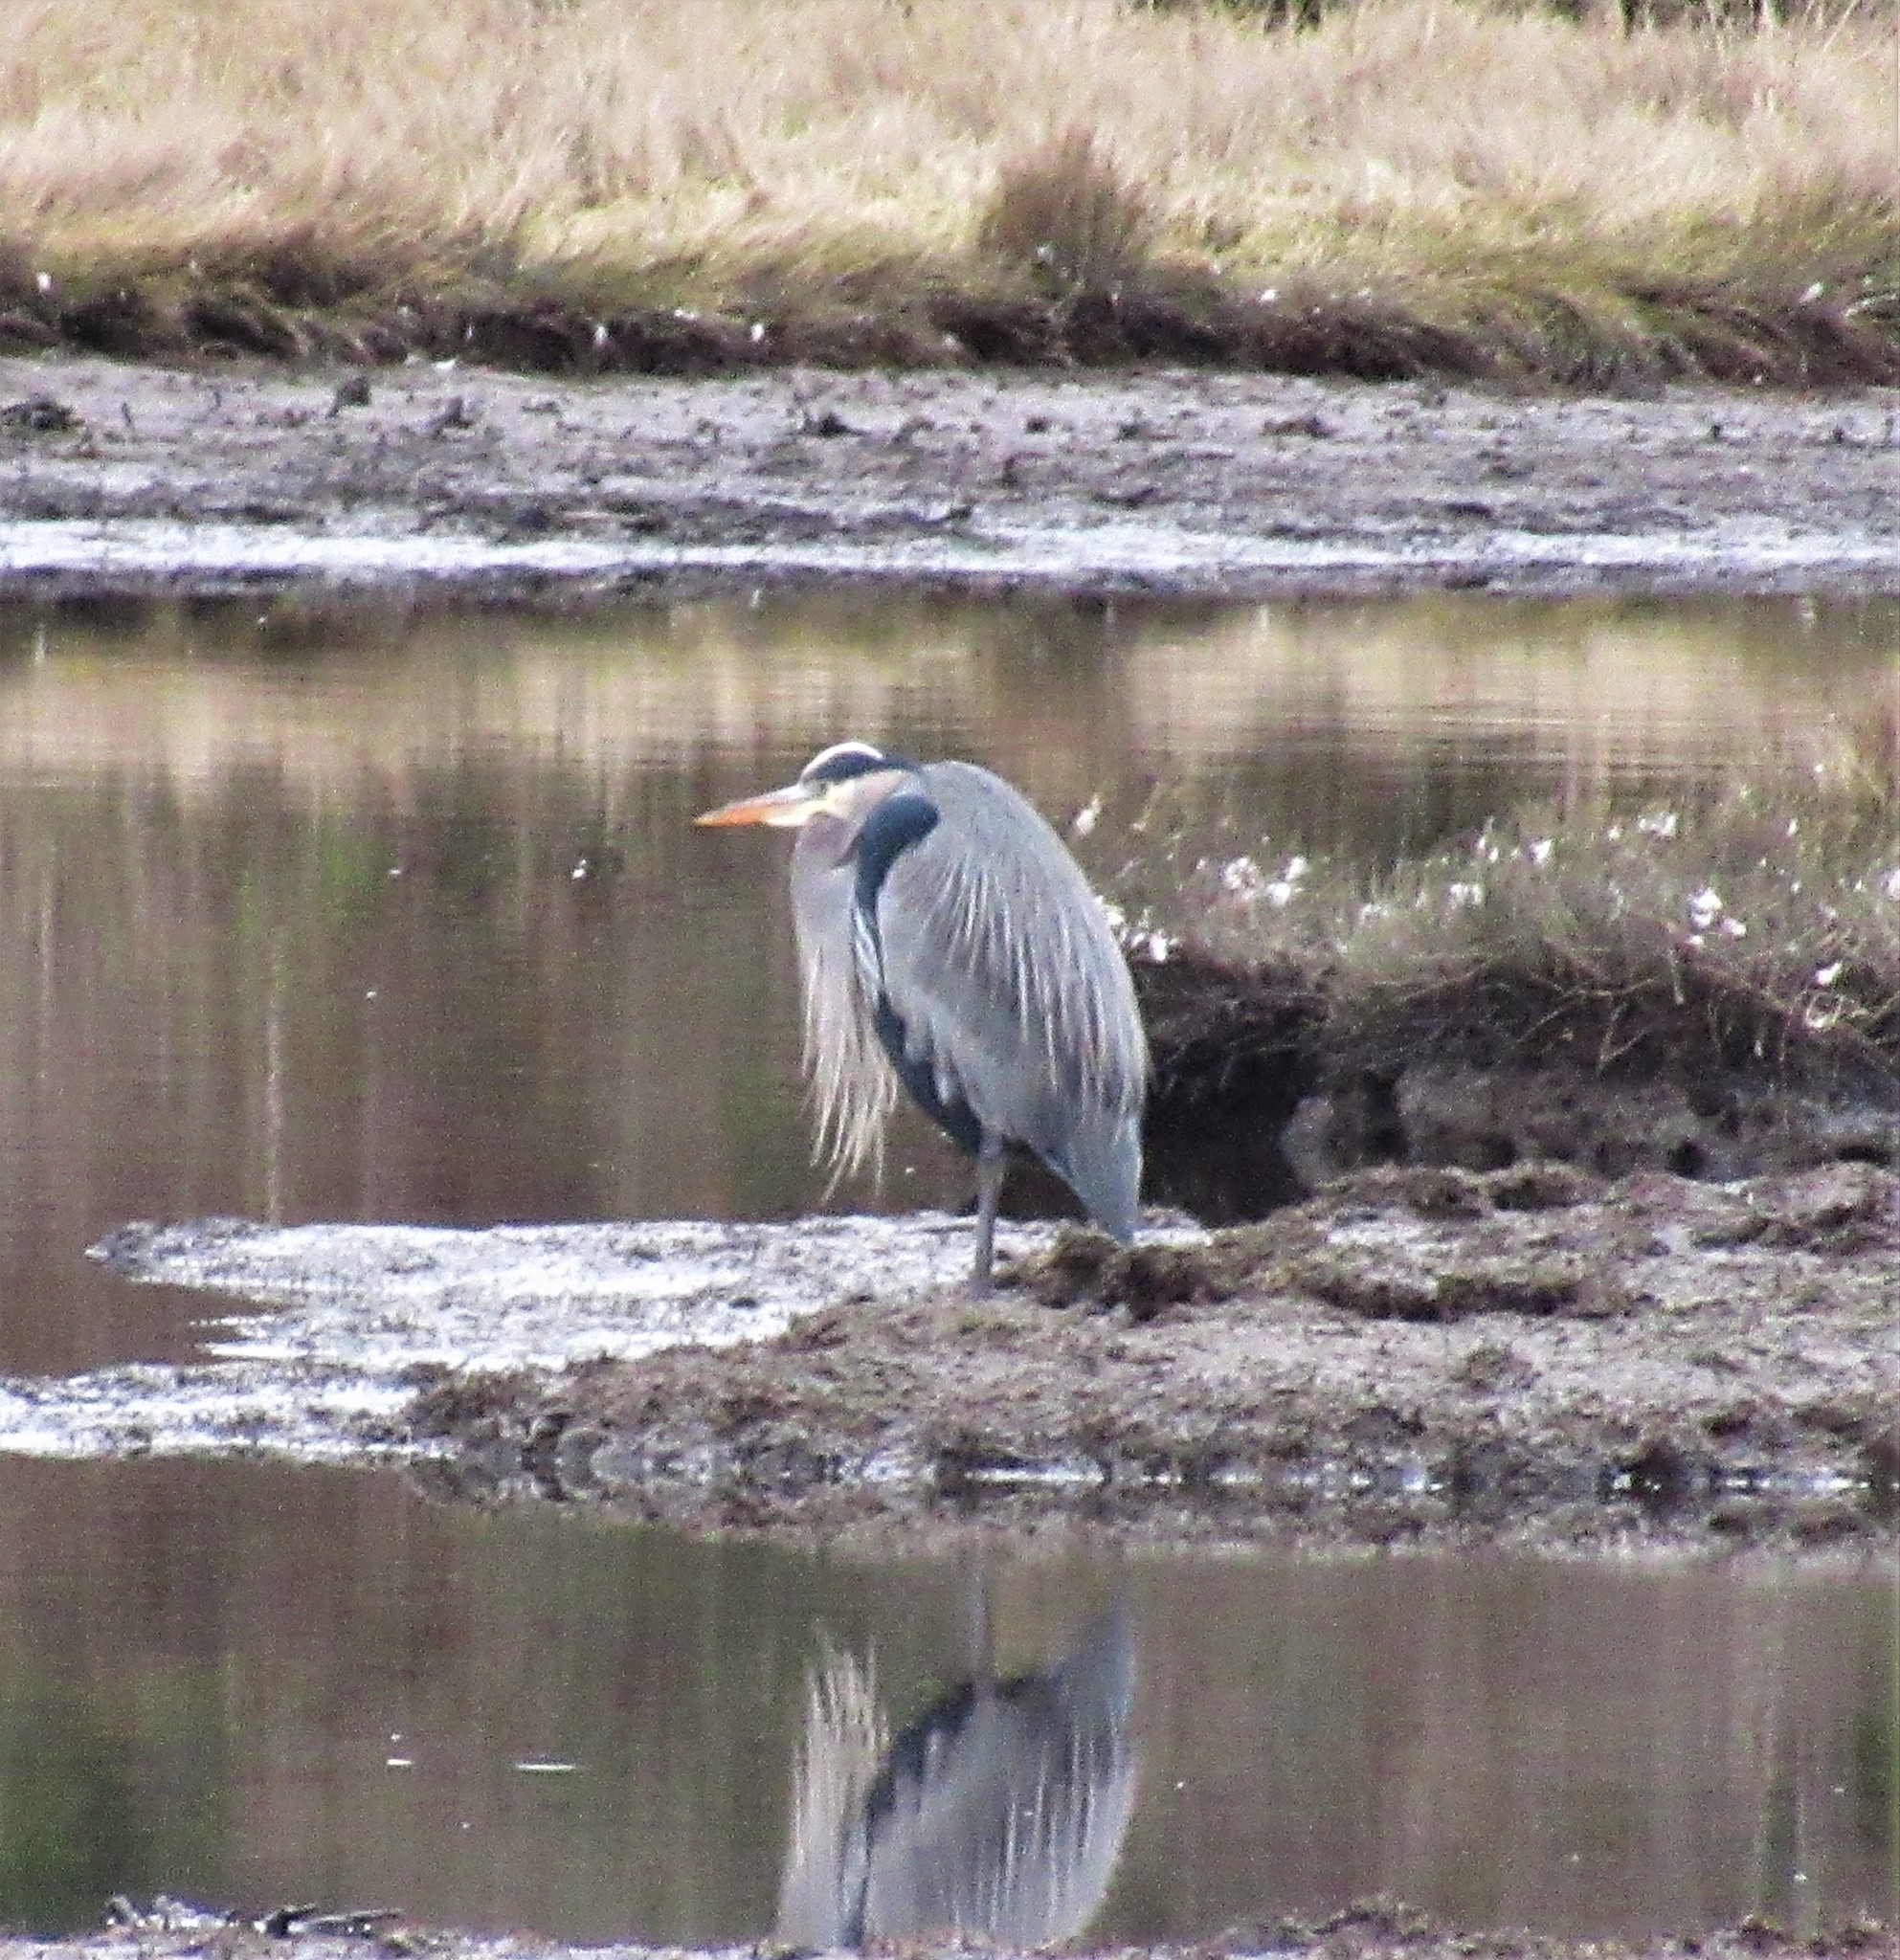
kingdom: Animalia
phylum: Chordata
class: Aves
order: Pelecaniformes
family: Ardeidae
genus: Ardea
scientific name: Ardea herodias
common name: Great blue heron
